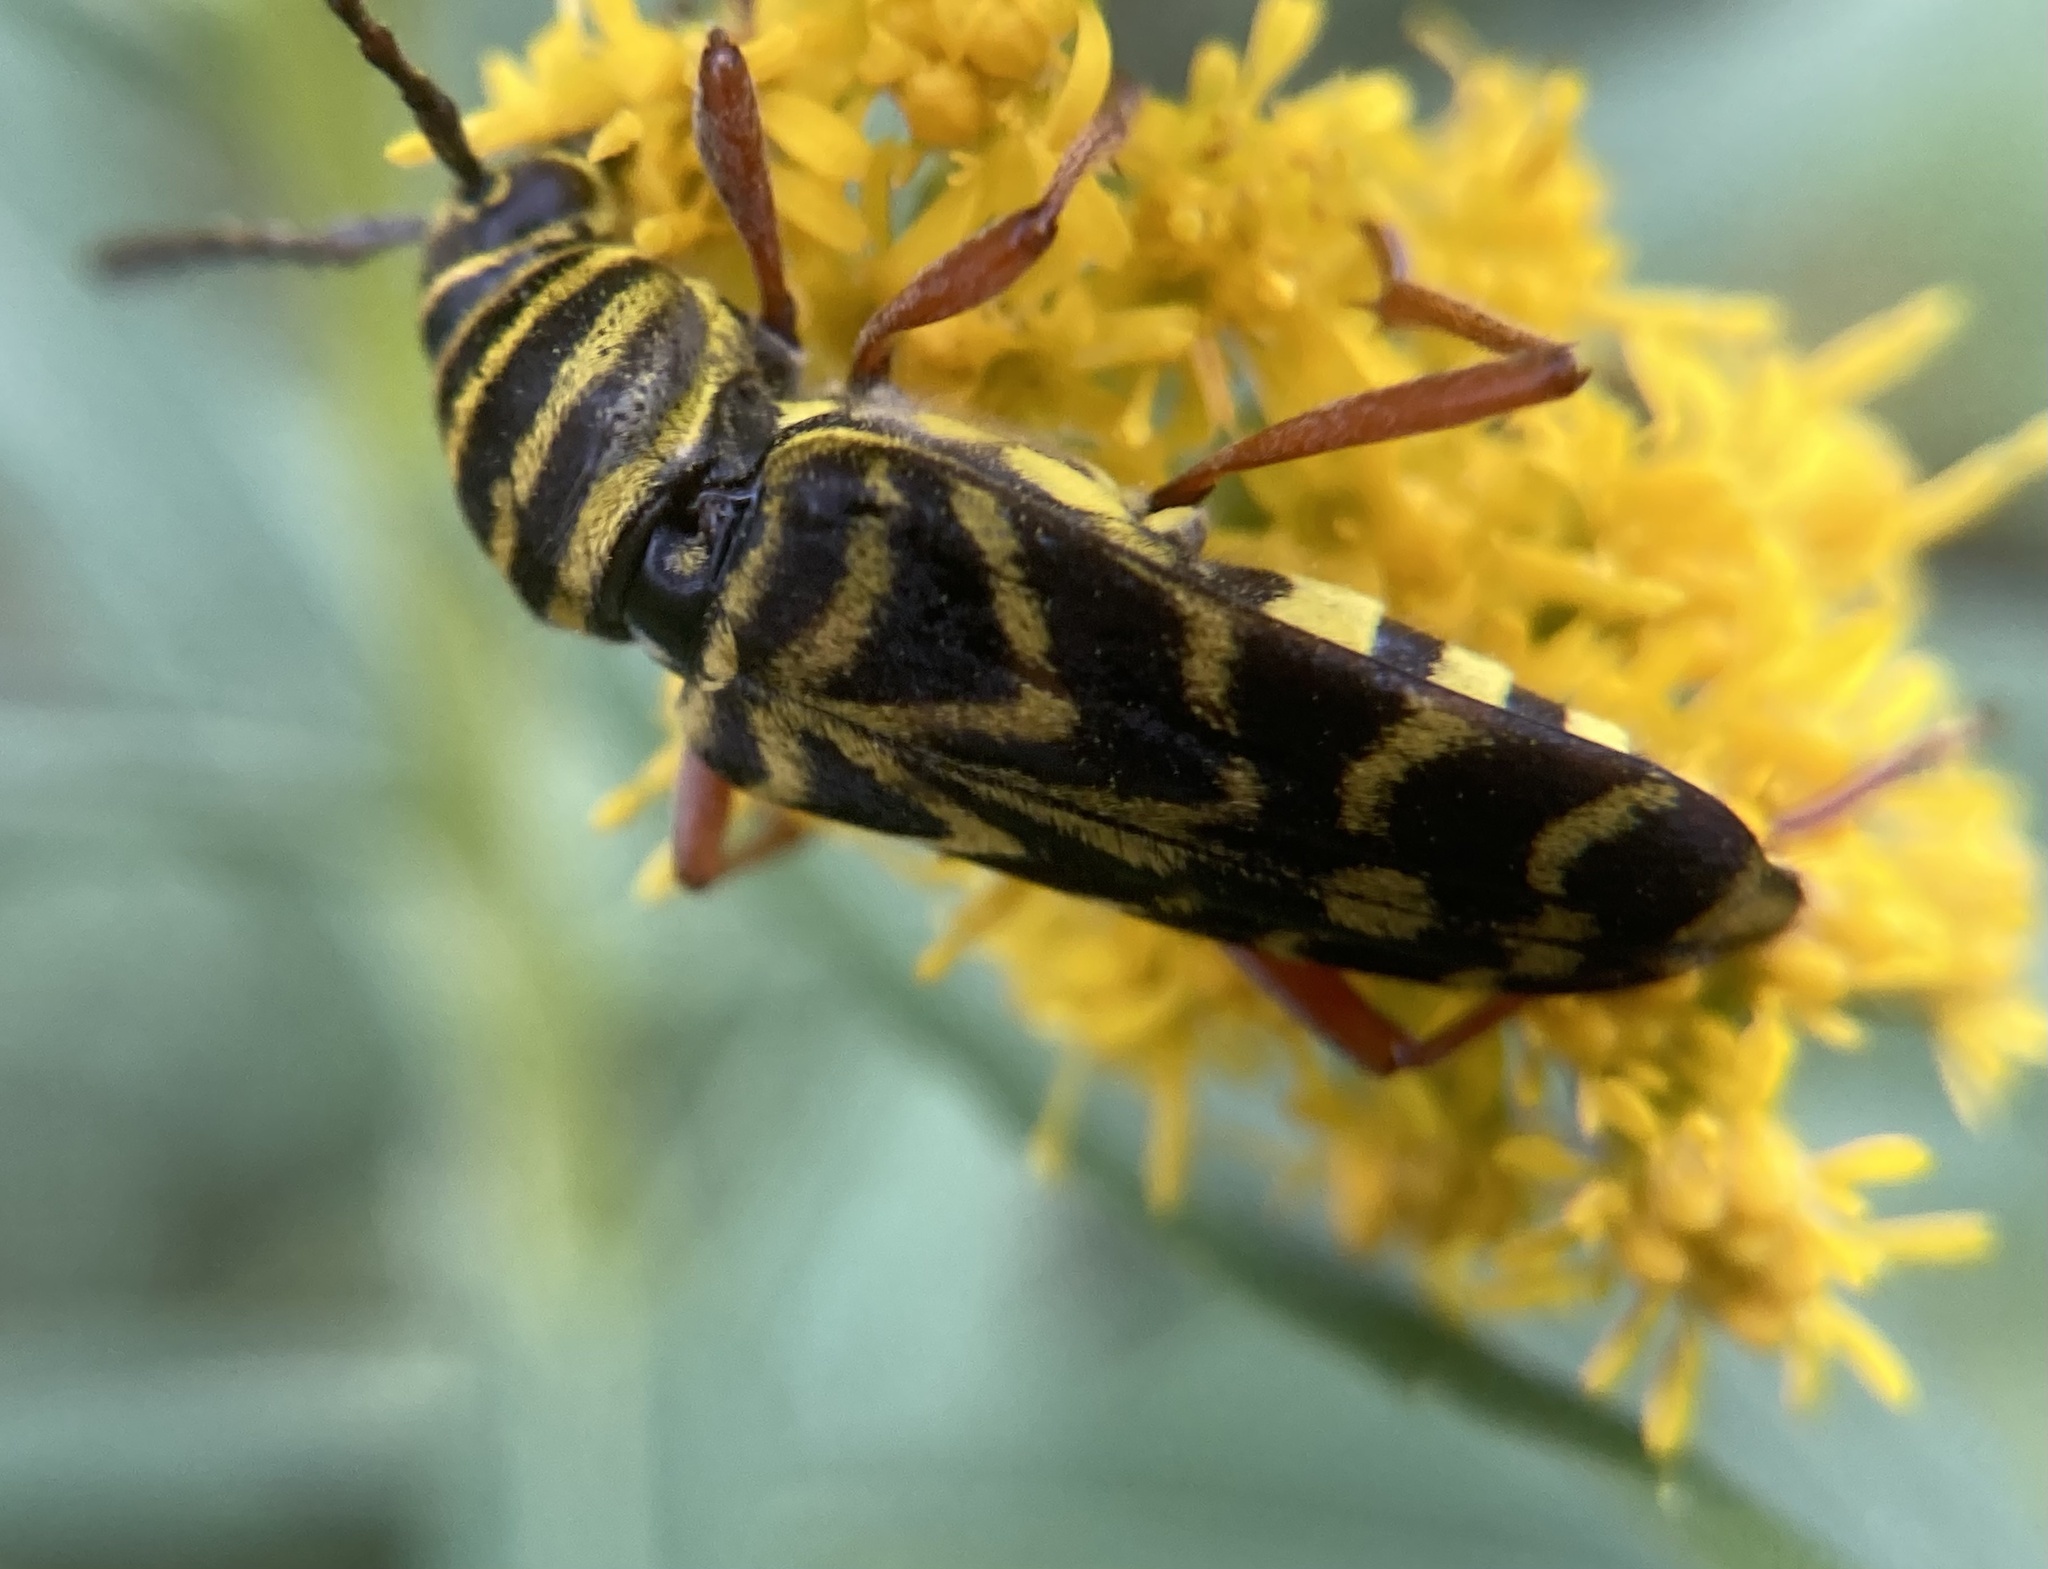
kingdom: Animalia
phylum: Arthropoda
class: Insecta
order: Coleoptera
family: Cerambycidae
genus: Megacyllene
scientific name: Megacyllene robiniae
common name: Locust borer
